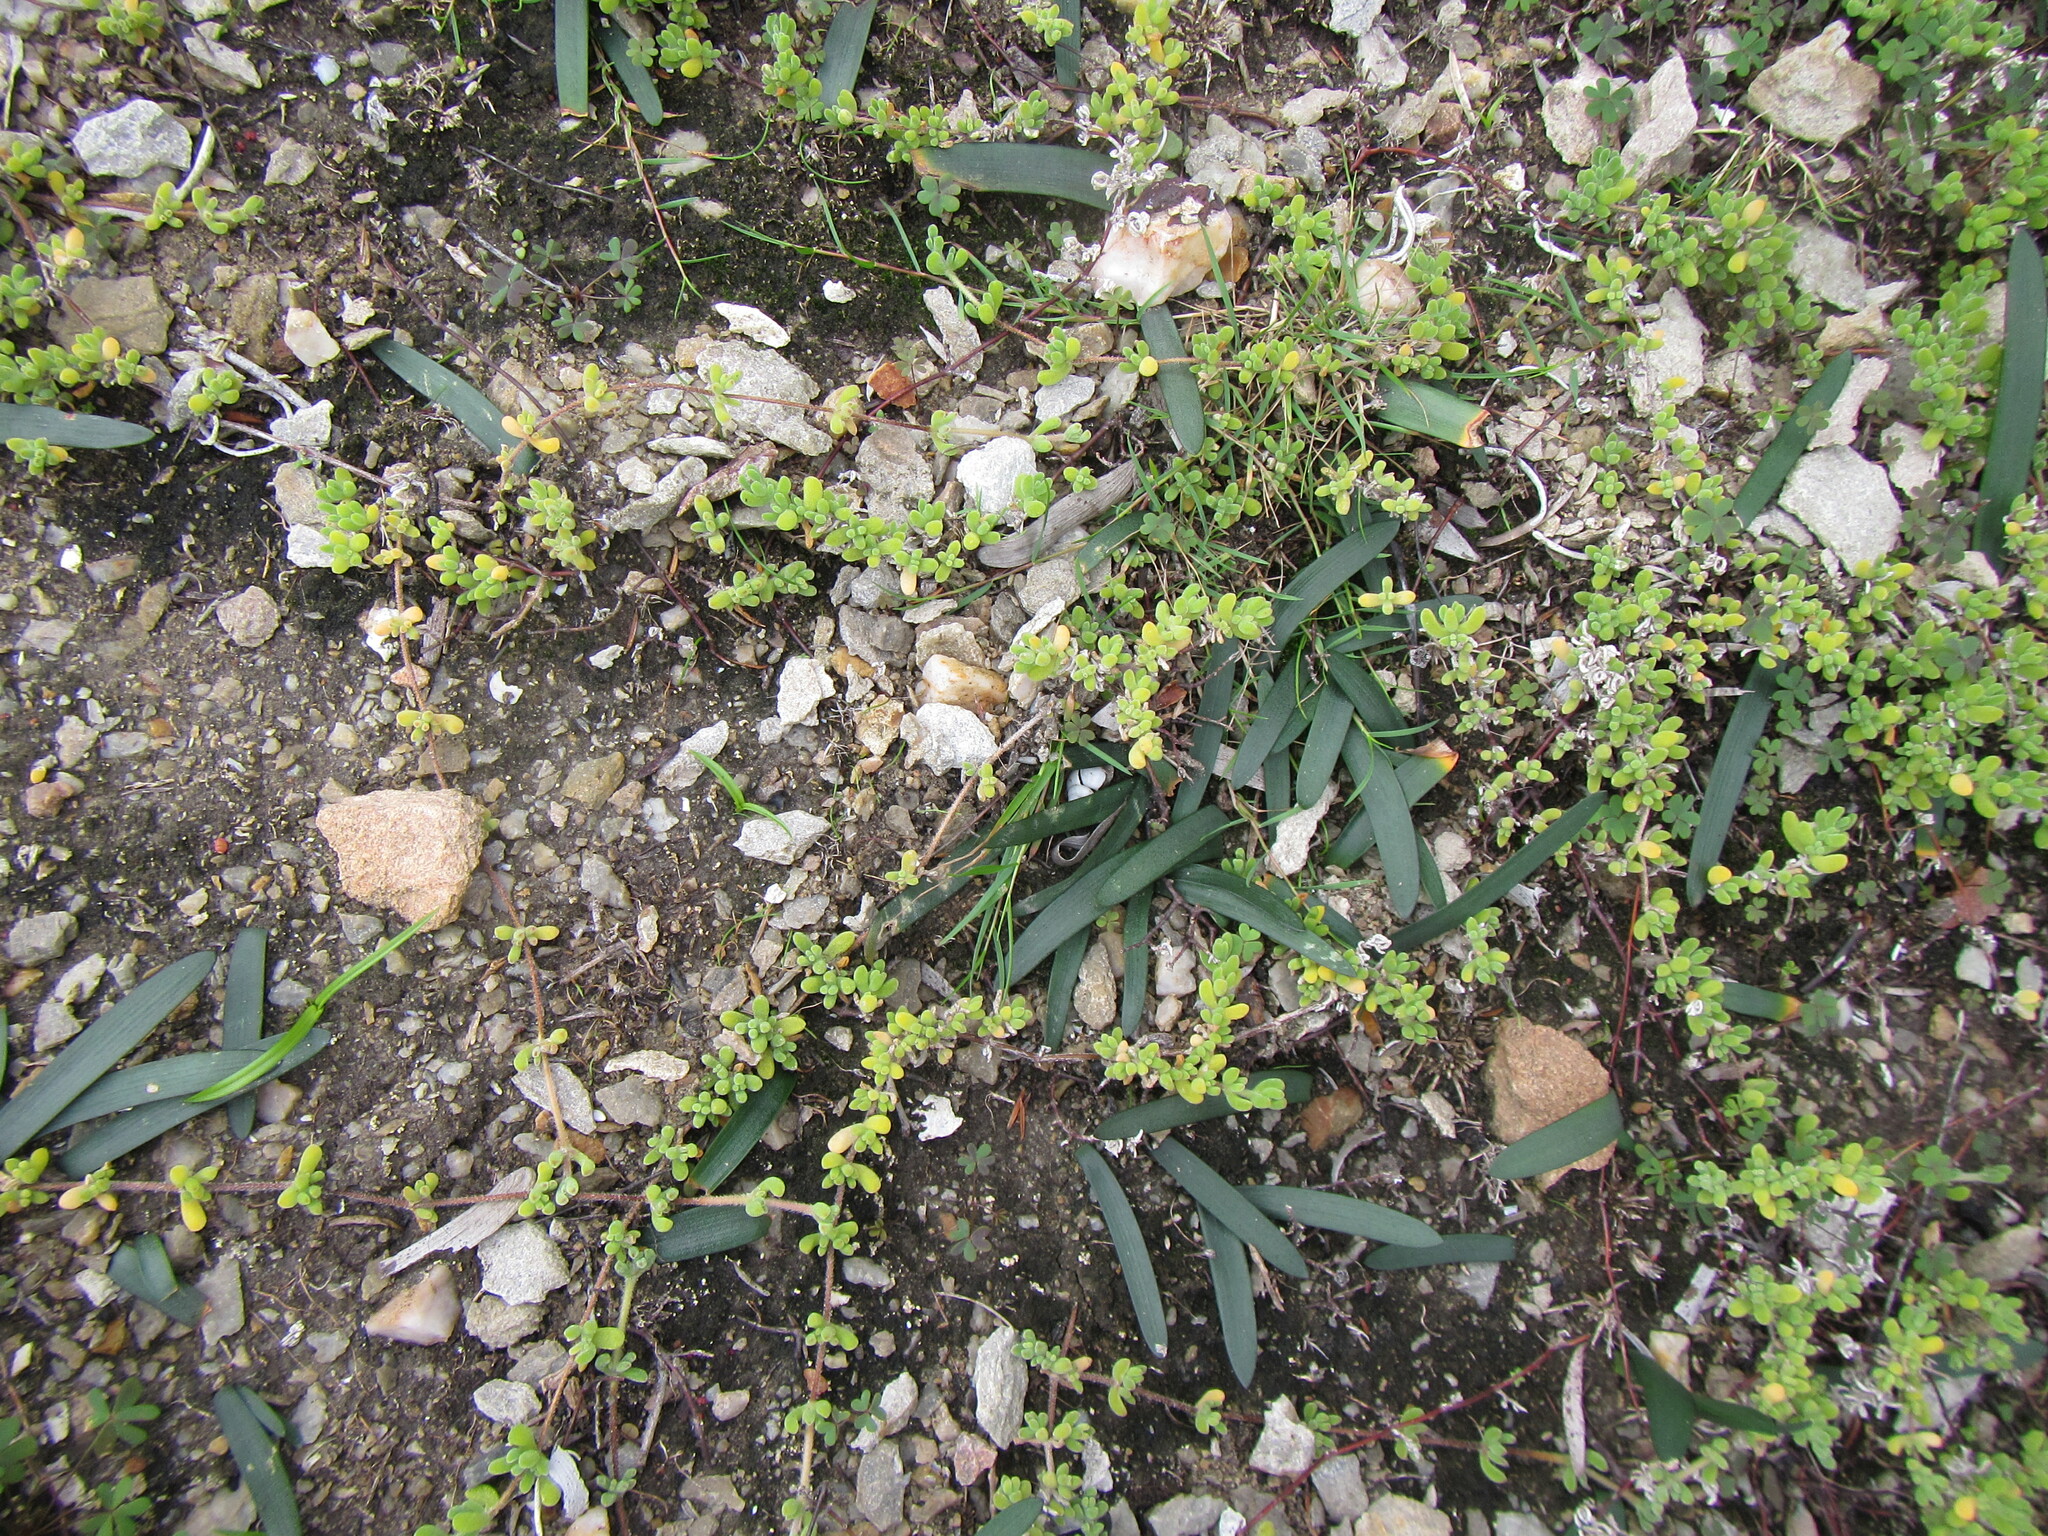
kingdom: Plantae
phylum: Tracheophyta
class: Liliopsida
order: Asparagales
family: Amaryllidaceae
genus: Nerine
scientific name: Nerine humilis
